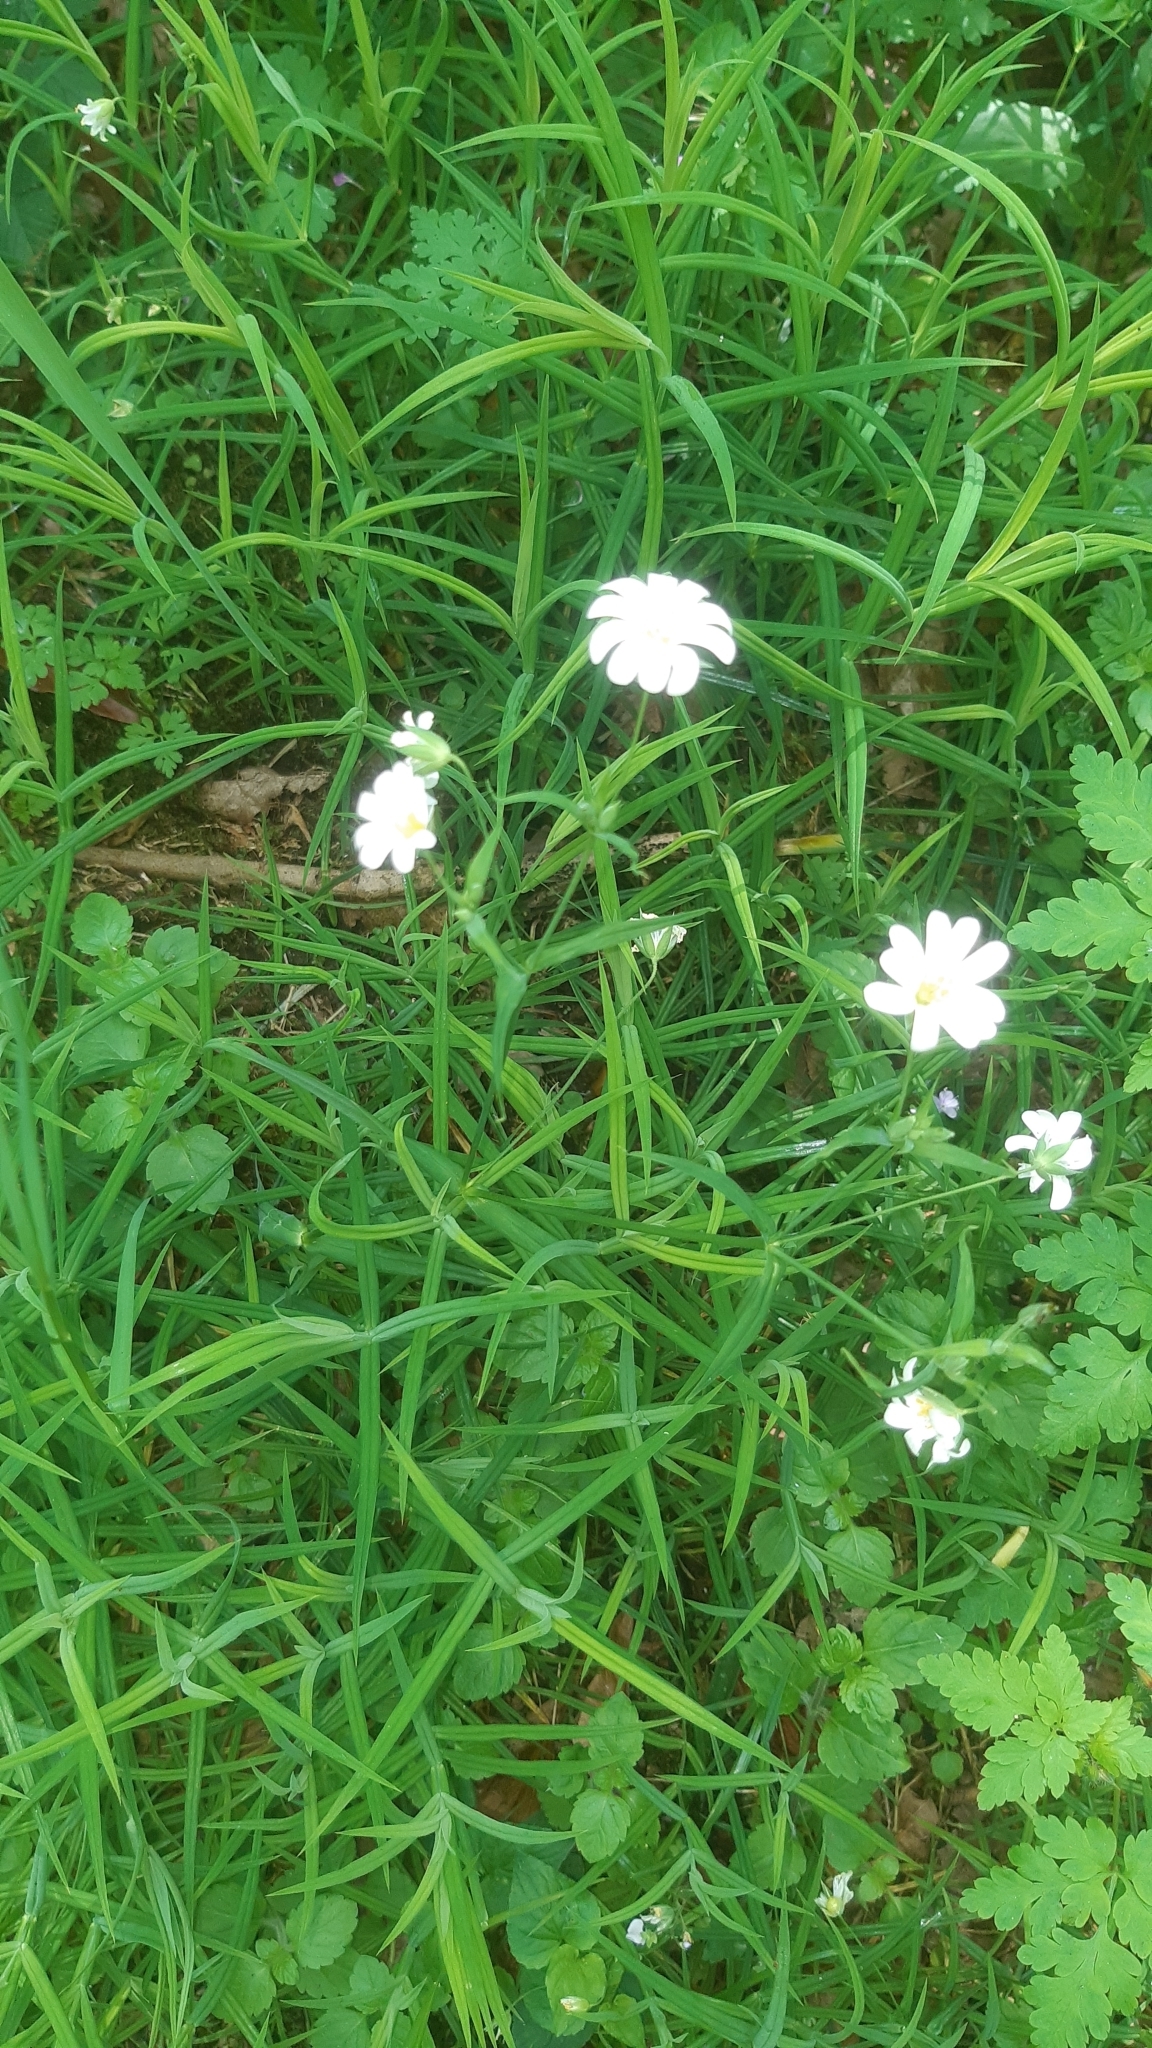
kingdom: Plantae
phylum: Tracheophyta
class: Magnoliopsida
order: Caryophyllales
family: Caryophyllaceae
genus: Rabelera
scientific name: Rabelera holostea
